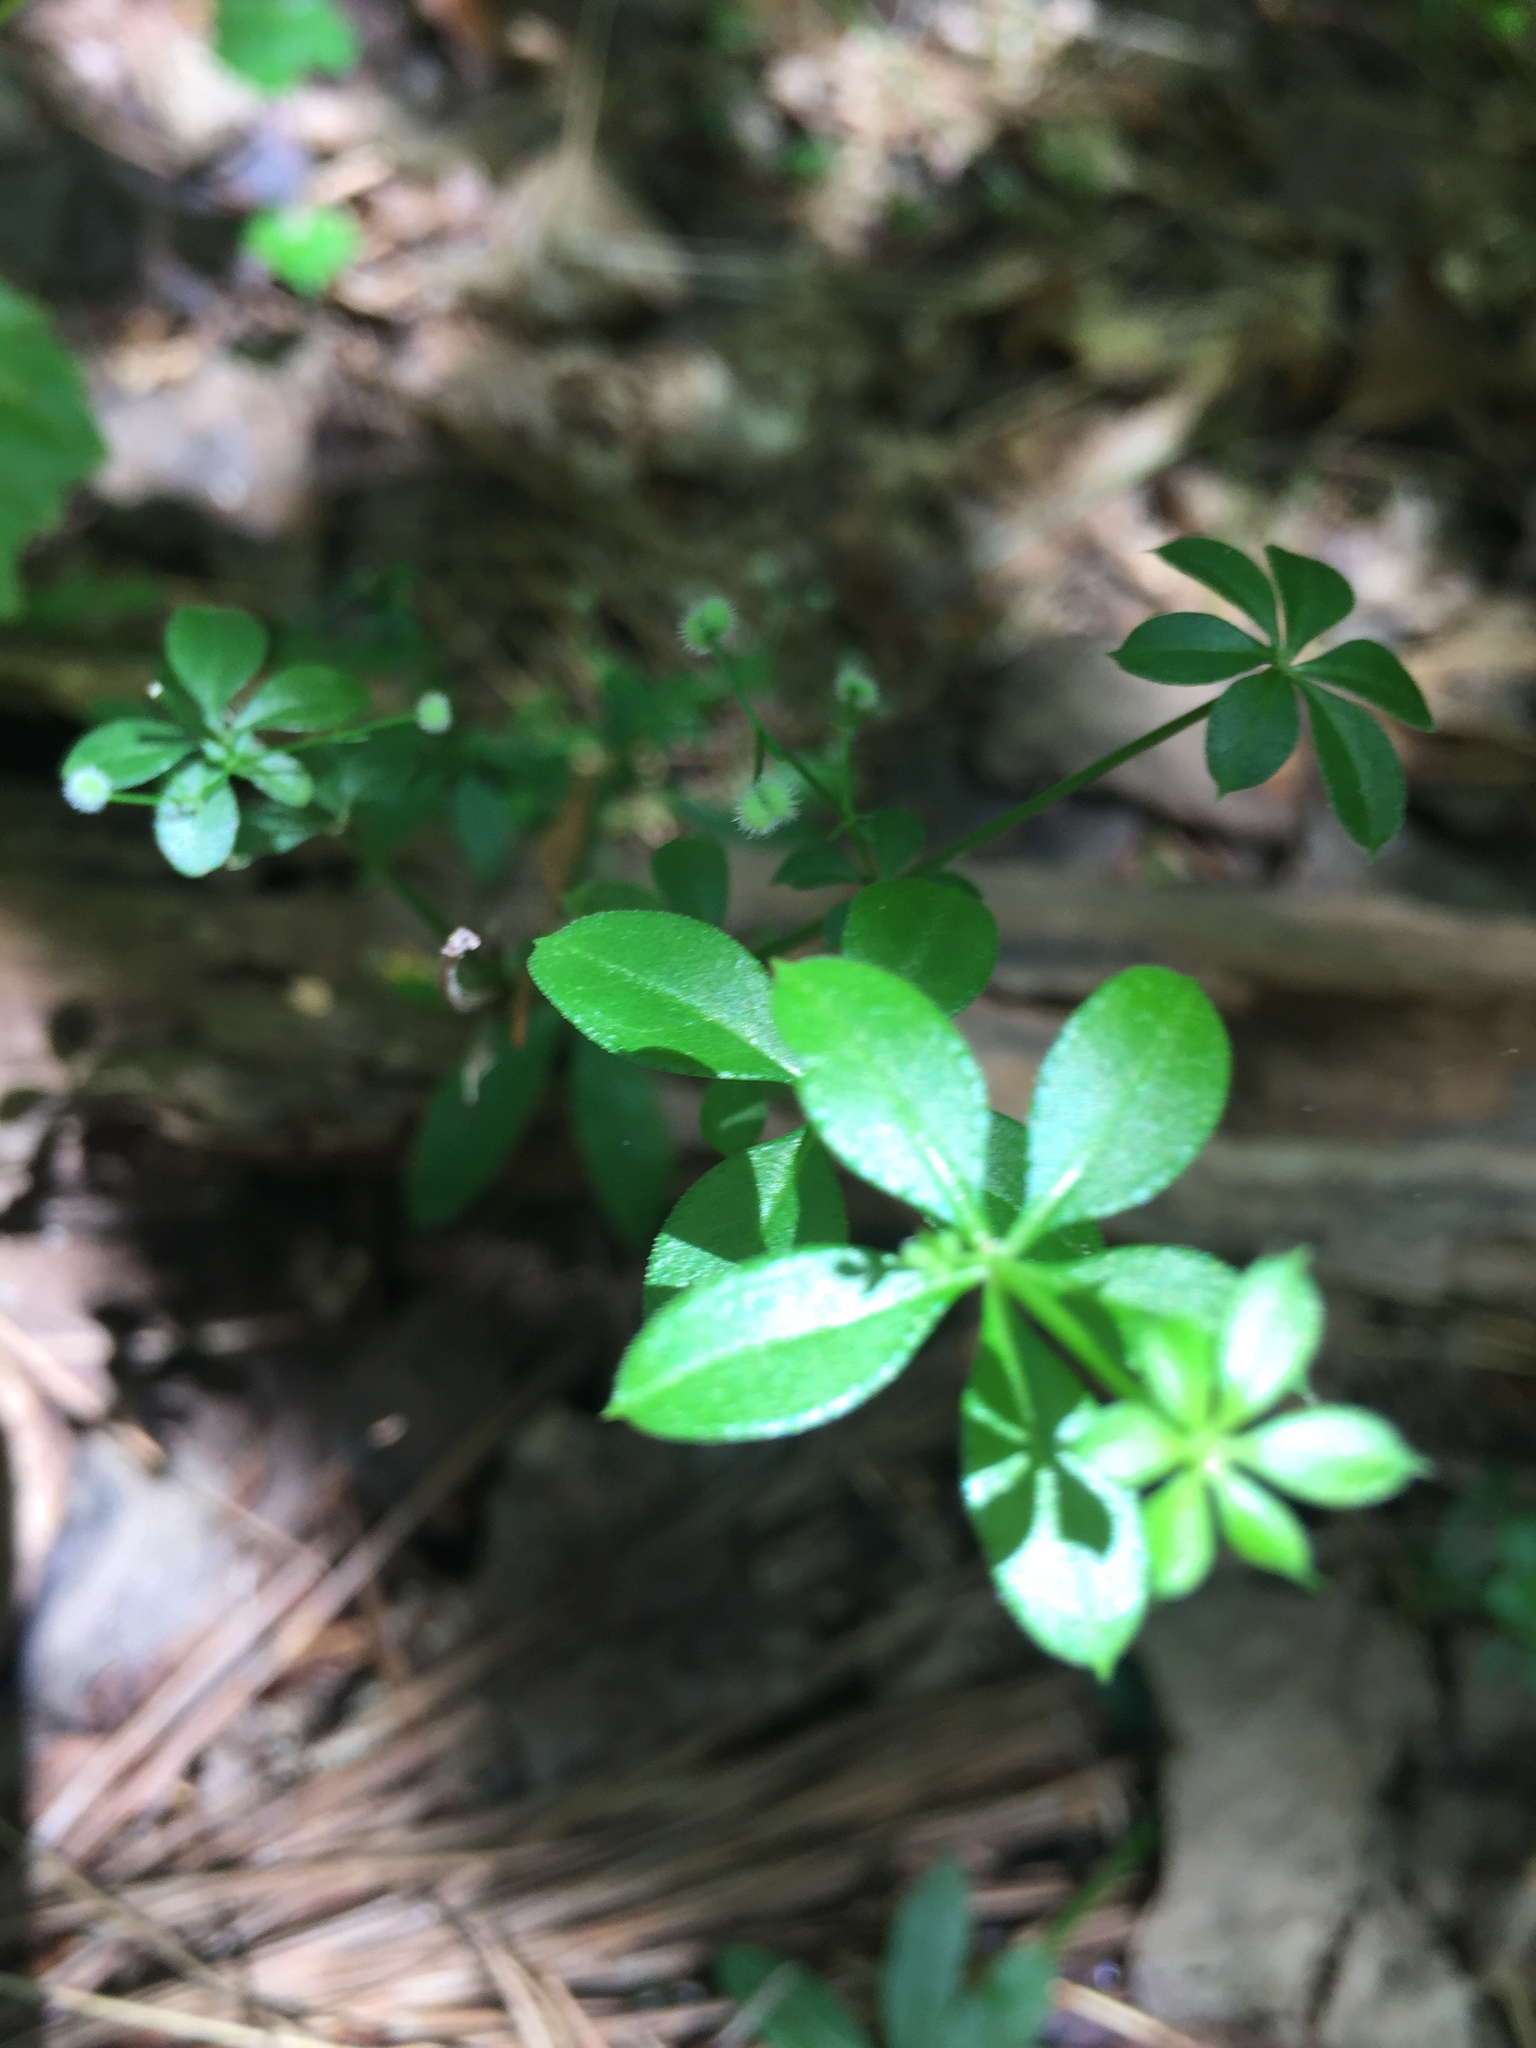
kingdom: Plantae
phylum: Tracheophyta
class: Magnoliopsida
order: Gentianales
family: Rubiaceae
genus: Galium
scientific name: Galium triflorum
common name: Fragrant bedstraw
